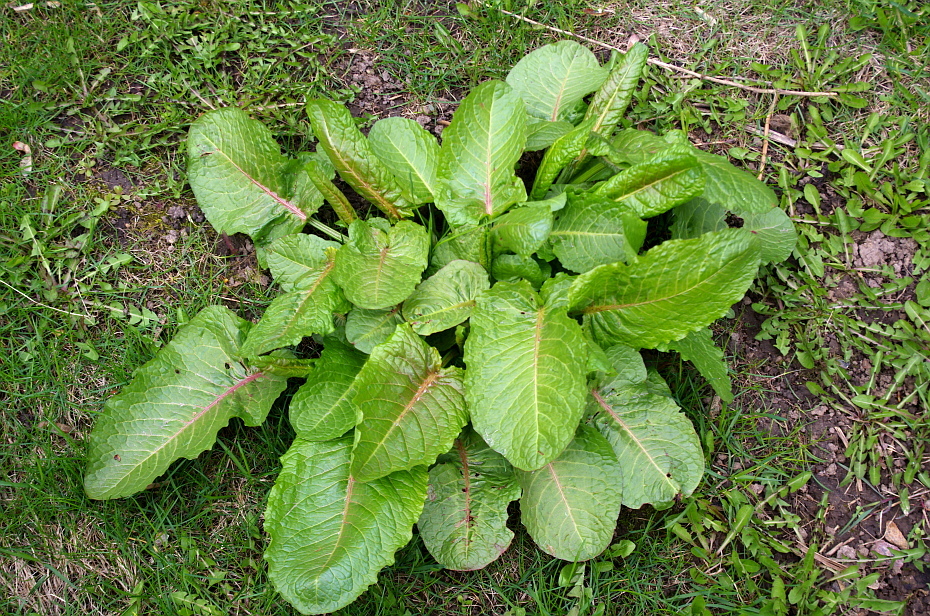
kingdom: Plantae
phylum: Tracheophyta
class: Magnoliopsida
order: Caryophyllales
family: Polygonaceae
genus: Rumex
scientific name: Rumex obtusifolius
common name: Bitter dock
